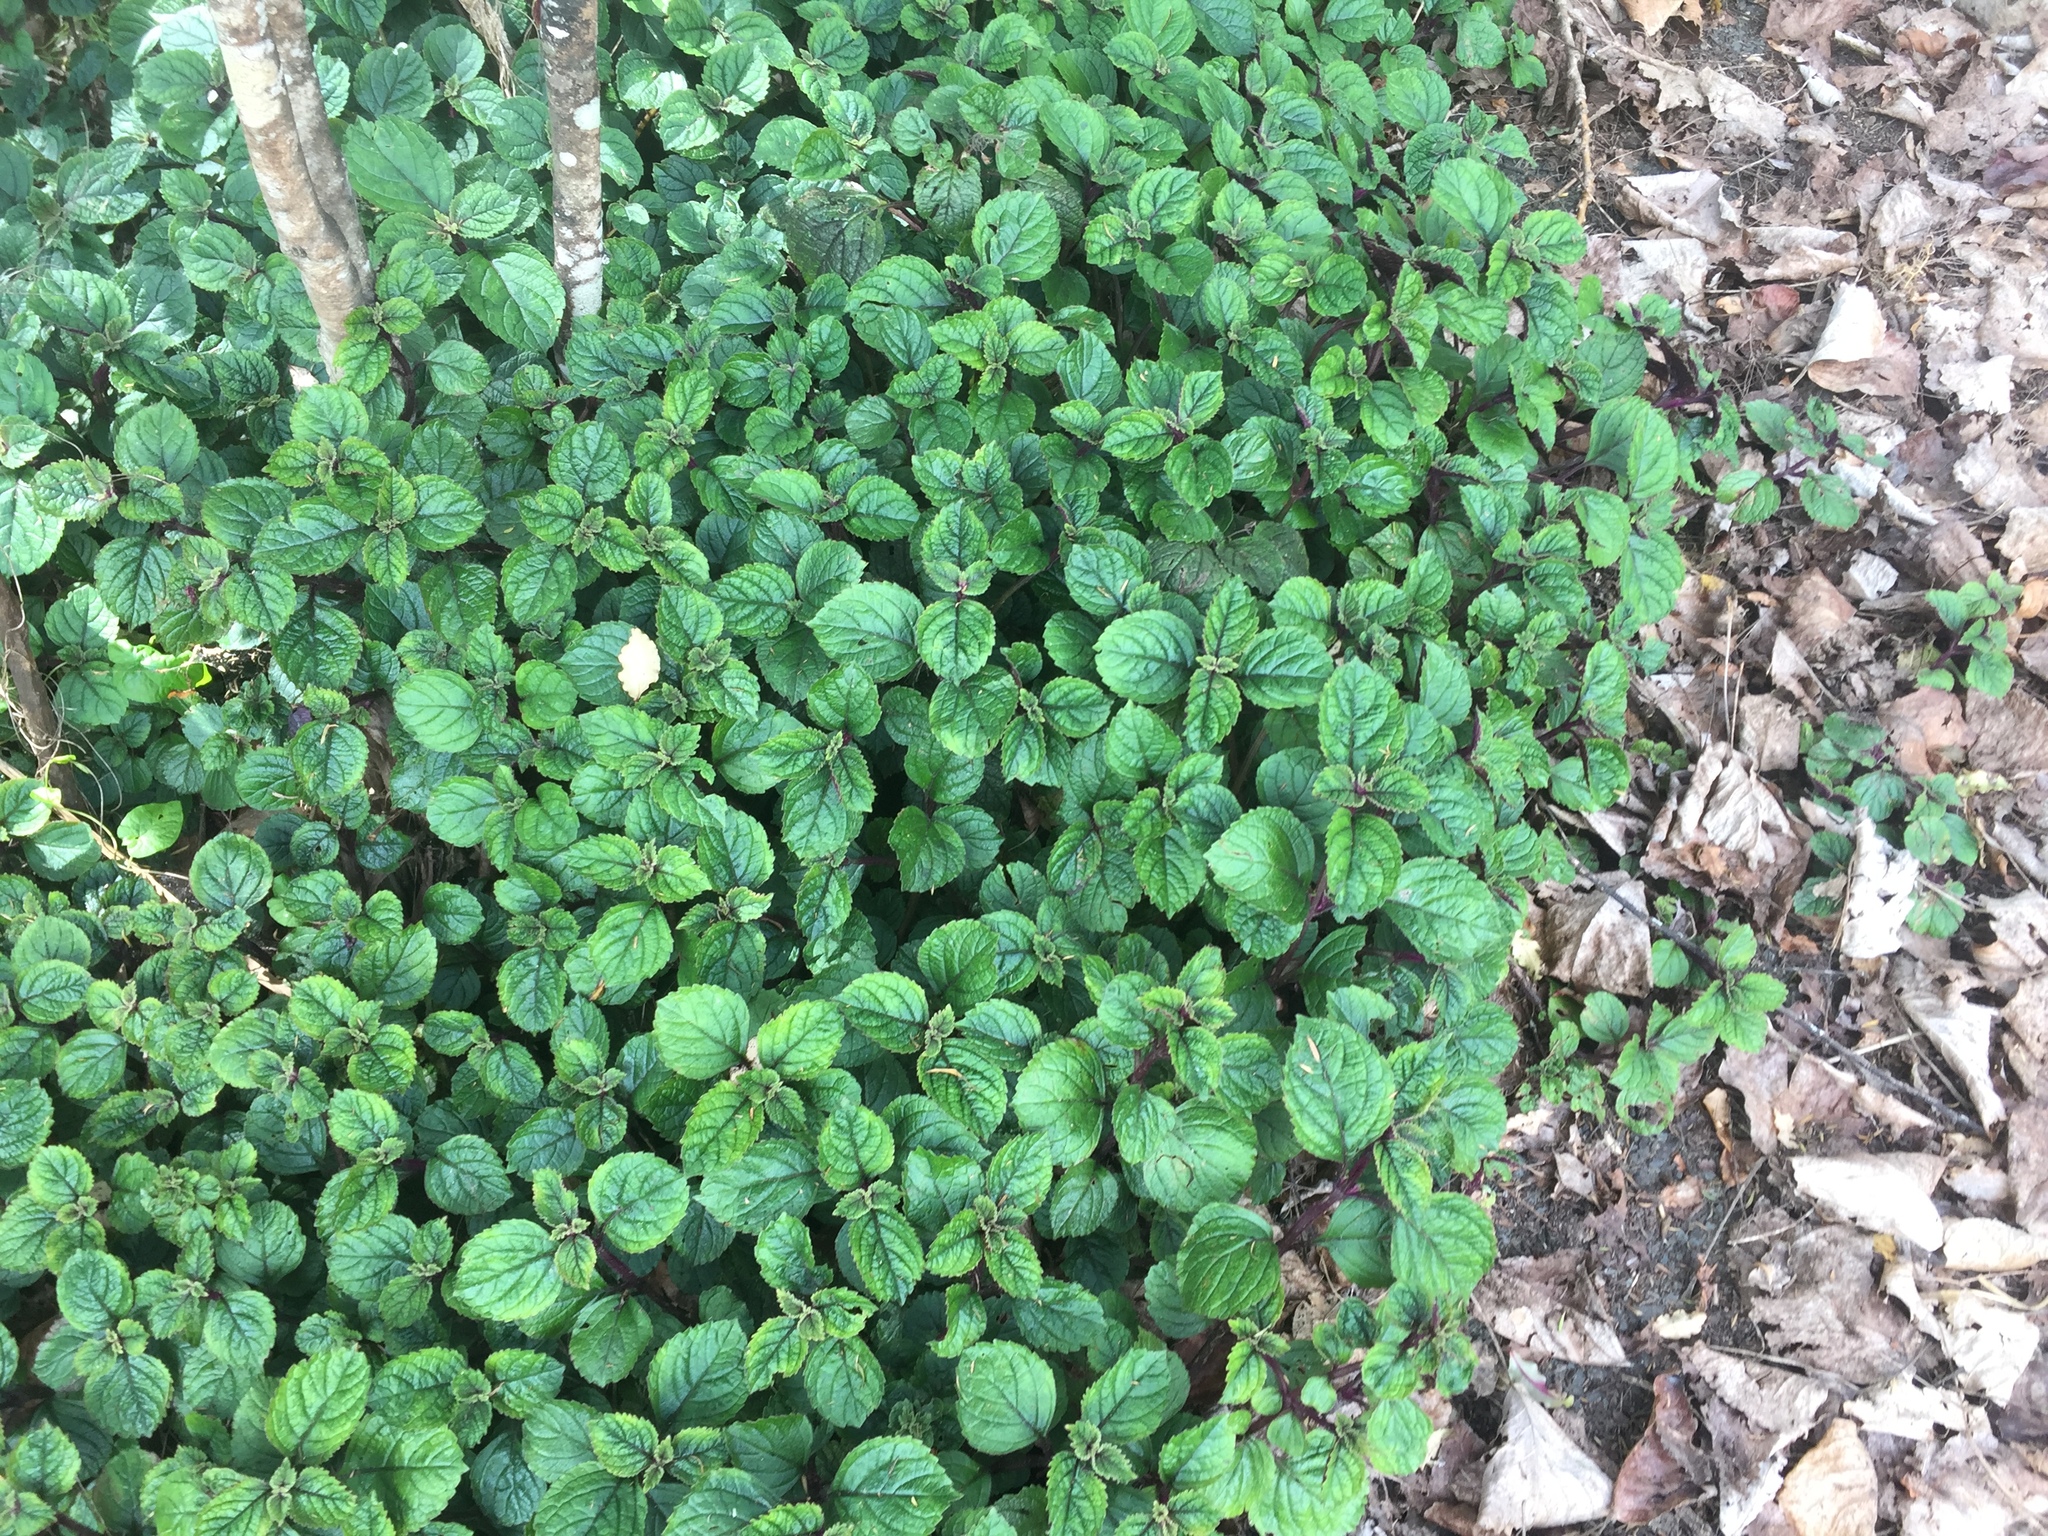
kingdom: Plantae
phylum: Tracheophyta
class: Magnoliopsida
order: Lamiales
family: Lamiaceae
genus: Plectranthus
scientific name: Plectranthus ciliatus
